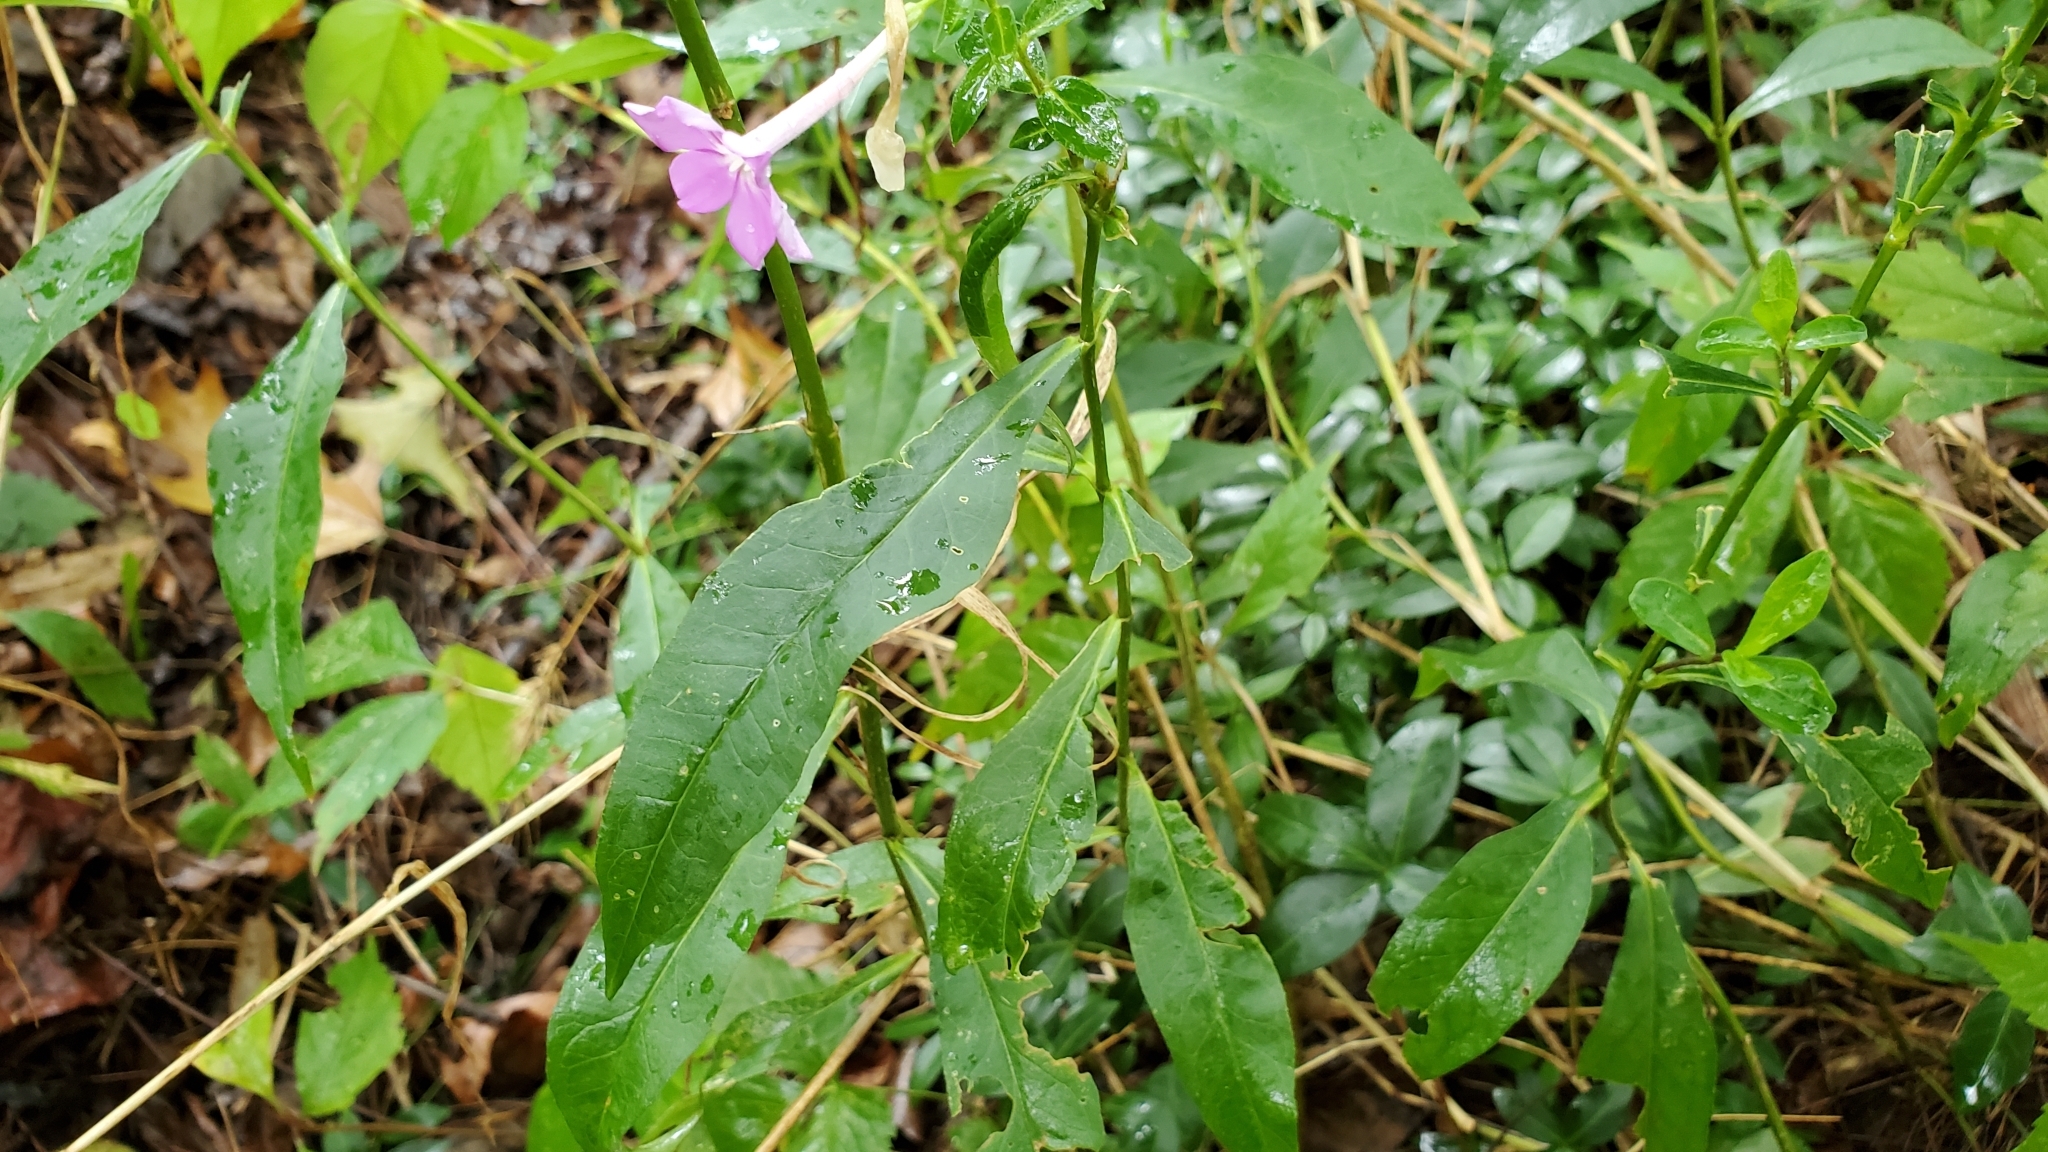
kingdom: Plantae
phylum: Tracheophyta
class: Magnoliopsida
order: Ericales
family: Polemoniaceae
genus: Phlox
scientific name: Phlox paniculata
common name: Fall phlox
